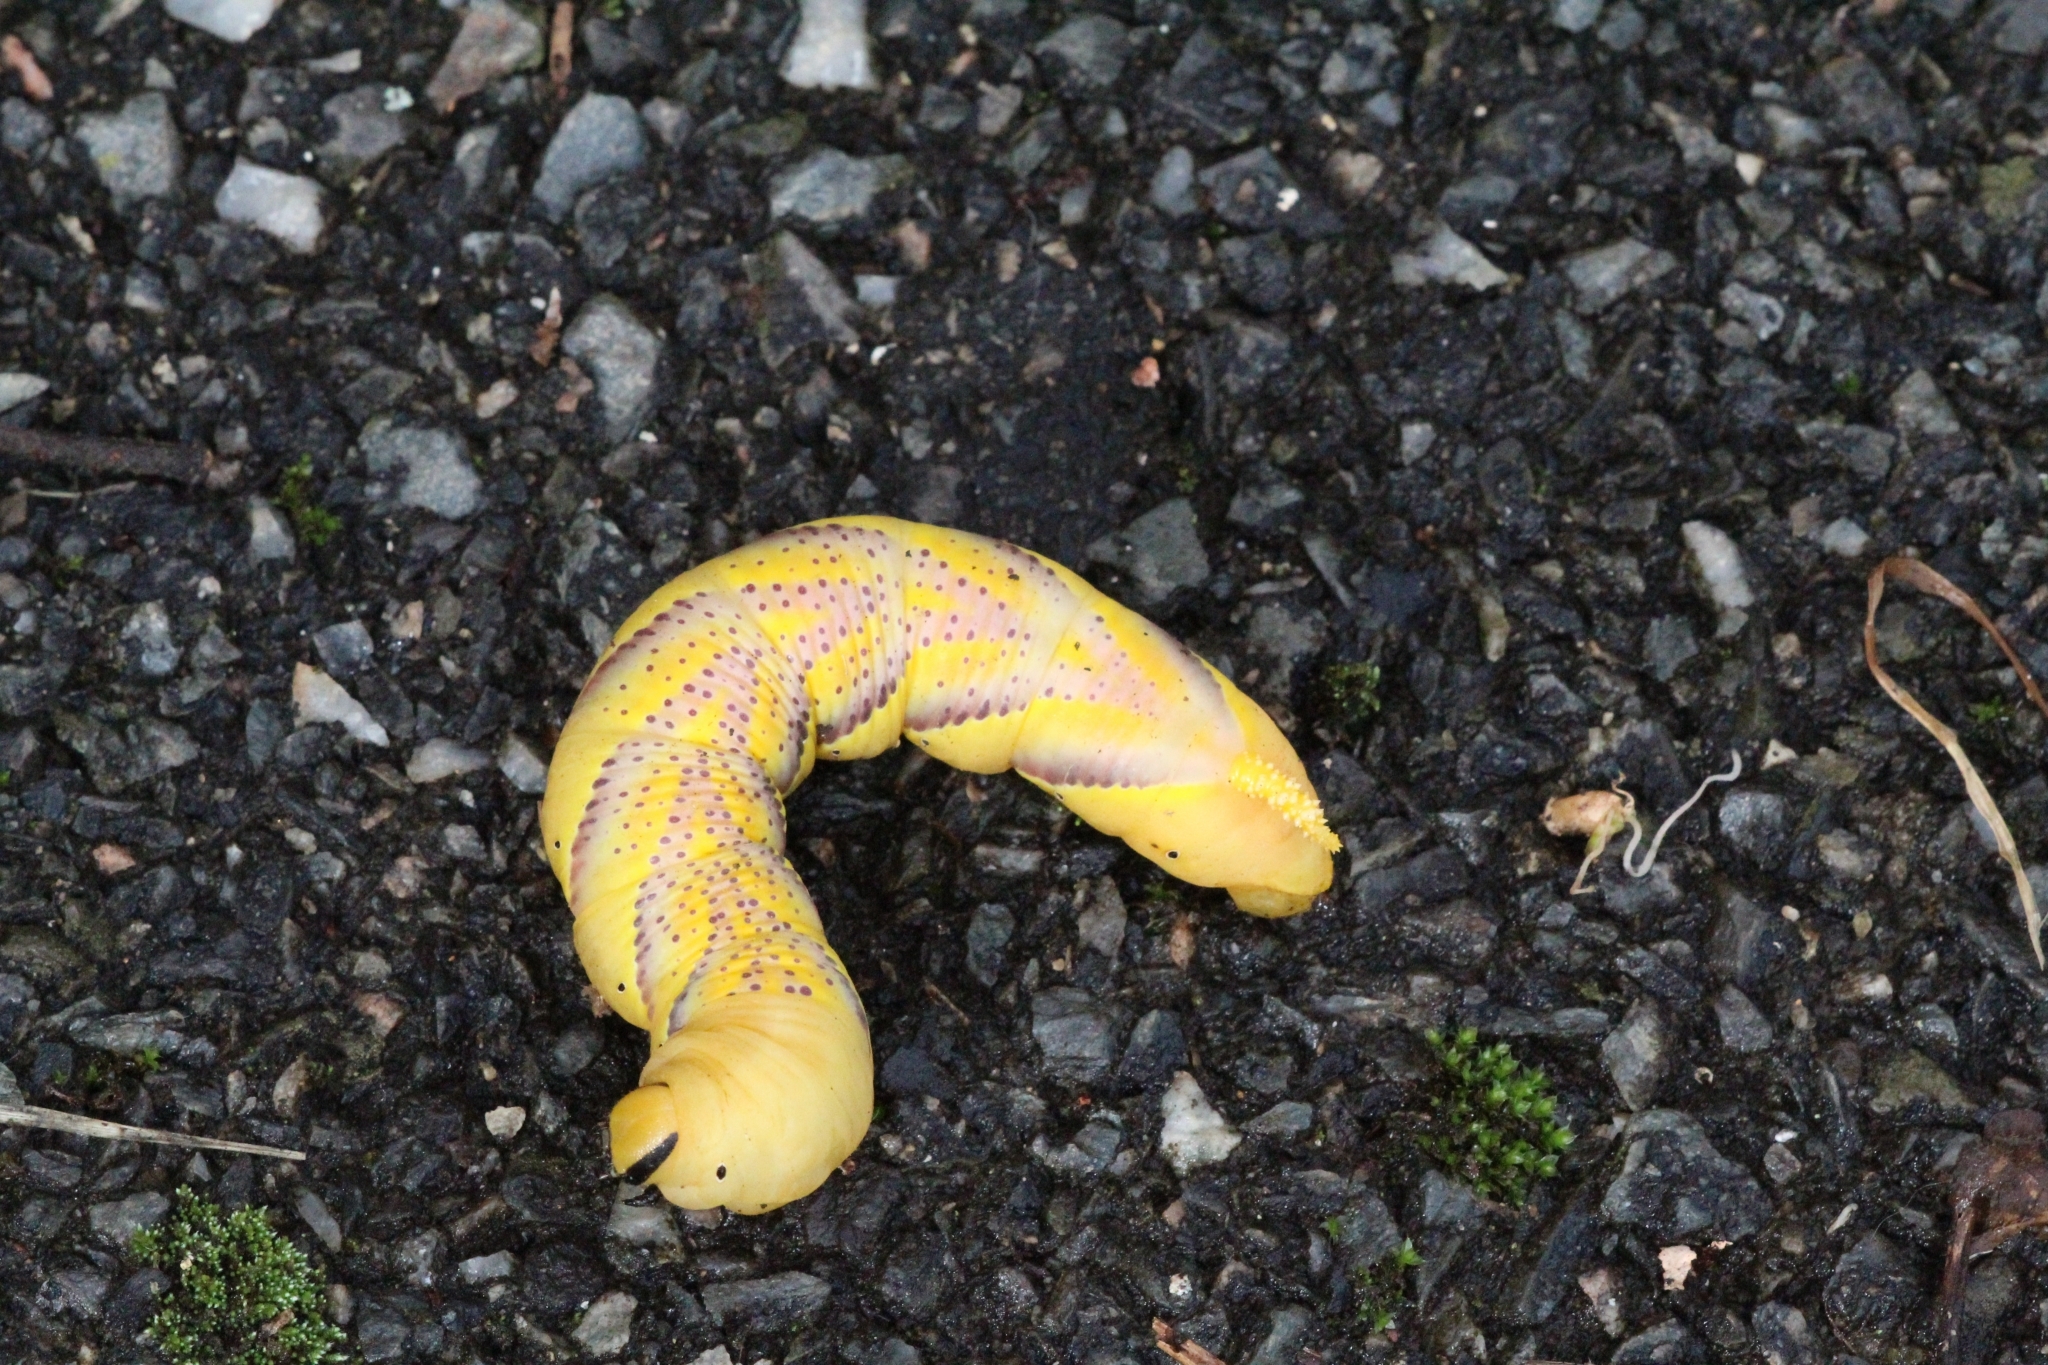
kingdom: Animalia
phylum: Arthropoda
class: Insecta
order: Lepidoptera
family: Sphingidae
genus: Acherontia
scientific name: Acherontia atropos
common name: Death's-head hawk moth
